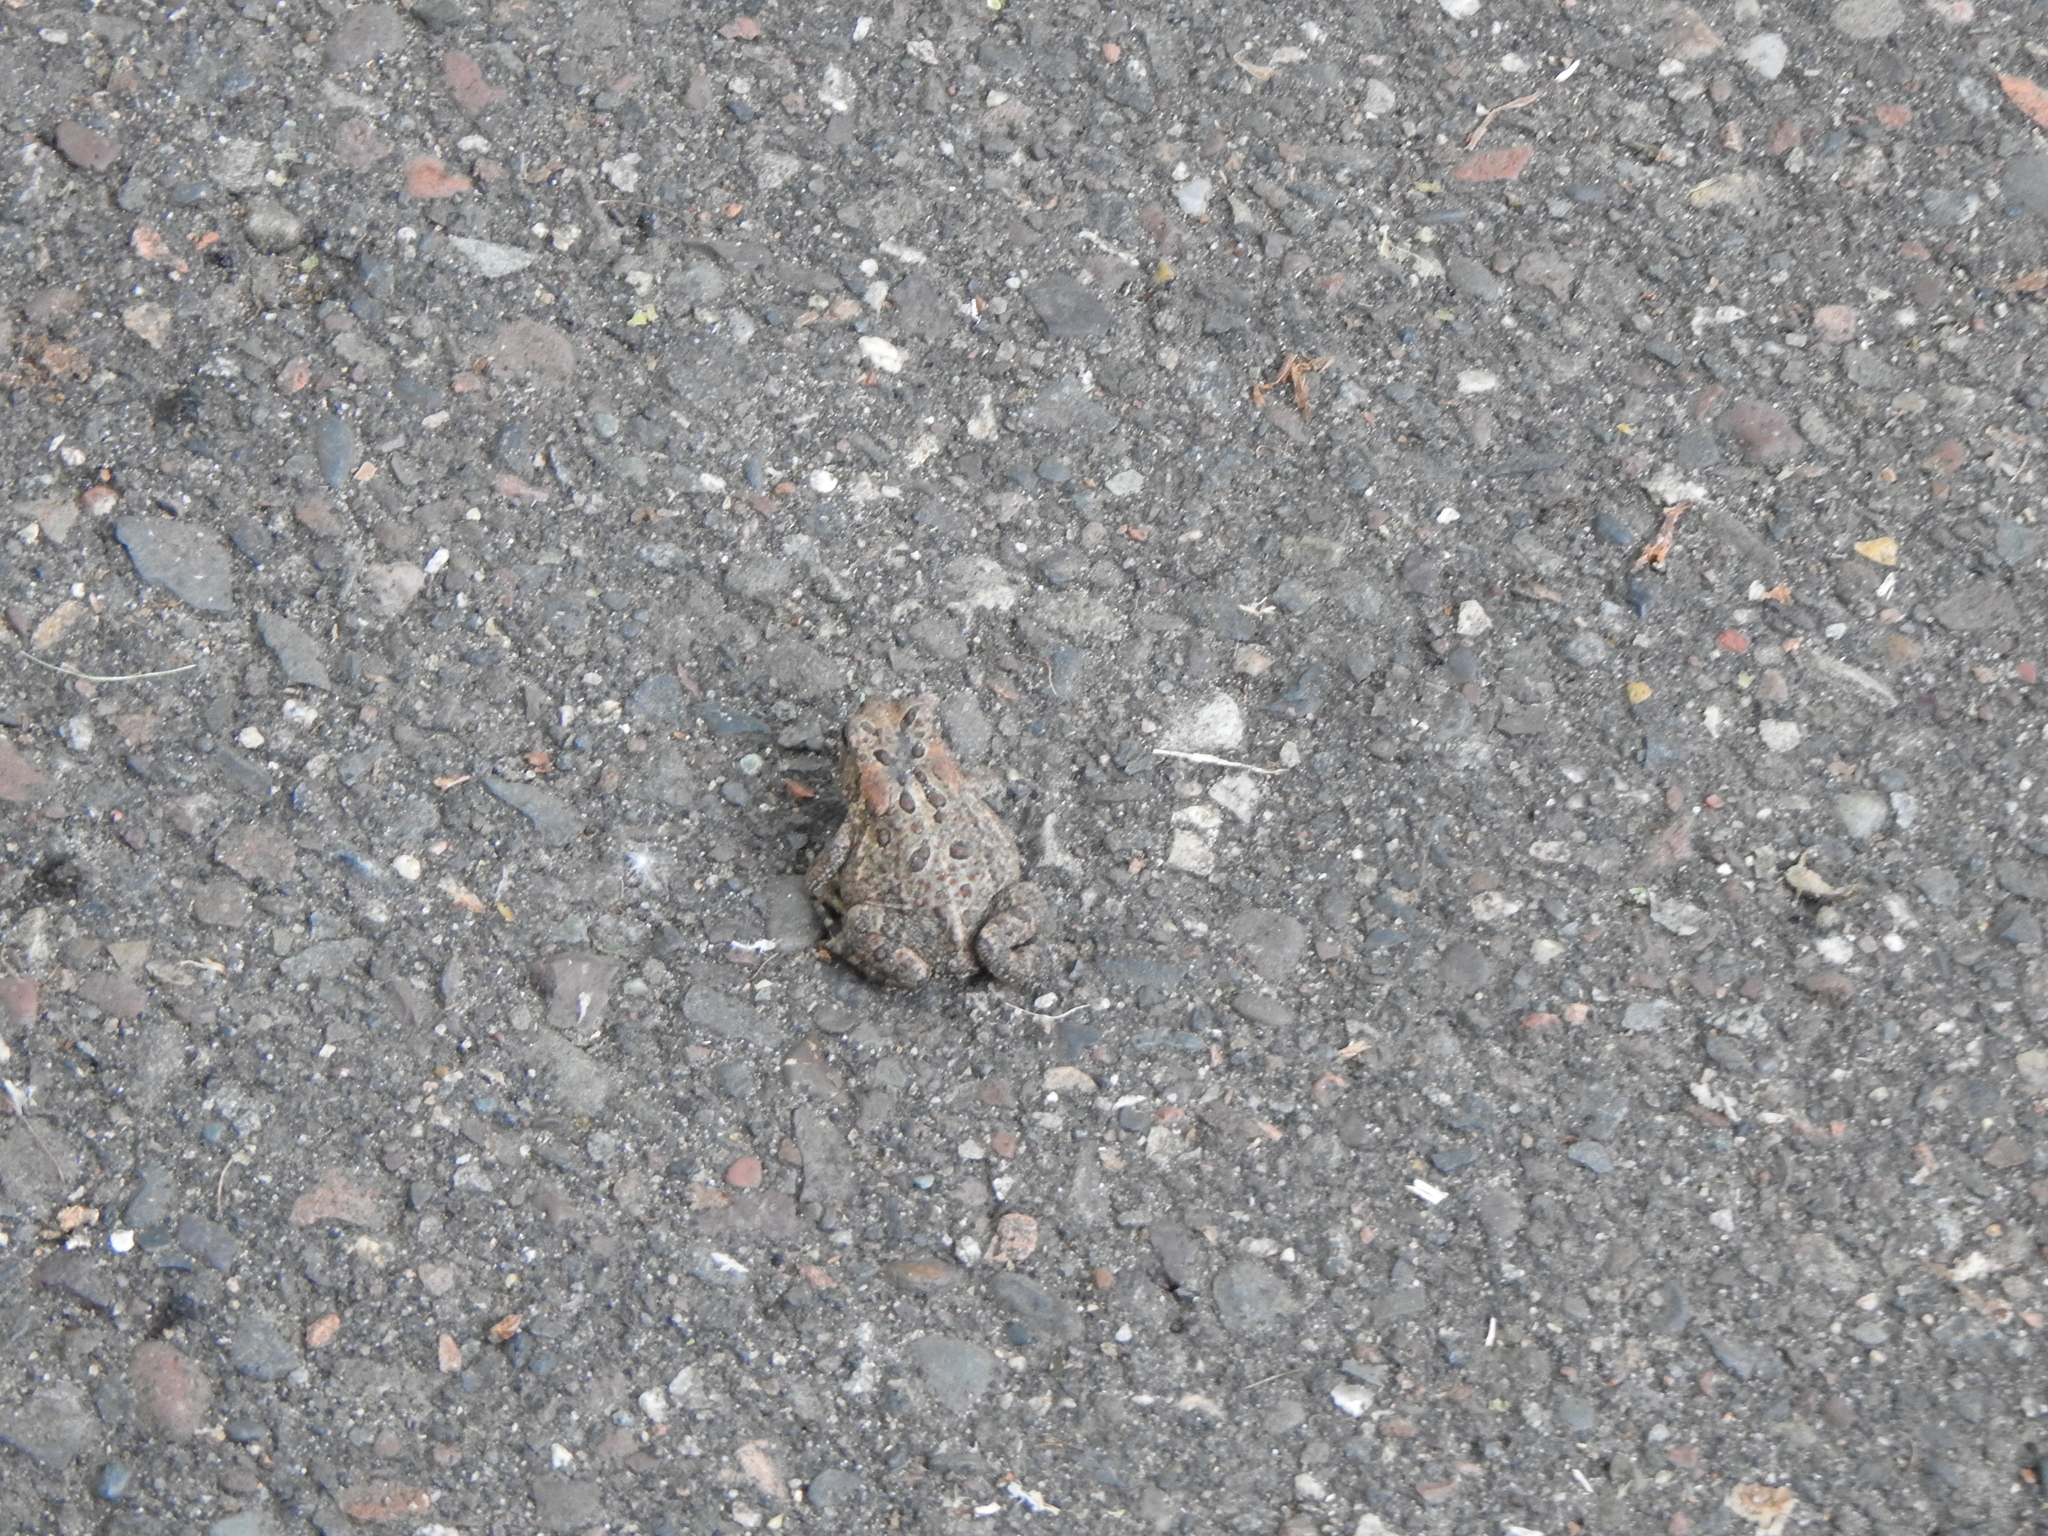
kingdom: Animalia
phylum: Chordata
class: Amphibia
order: Anura
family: Bufonidae
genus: Anaxyrus
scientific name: Anaxyrus americanus
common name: American toad
